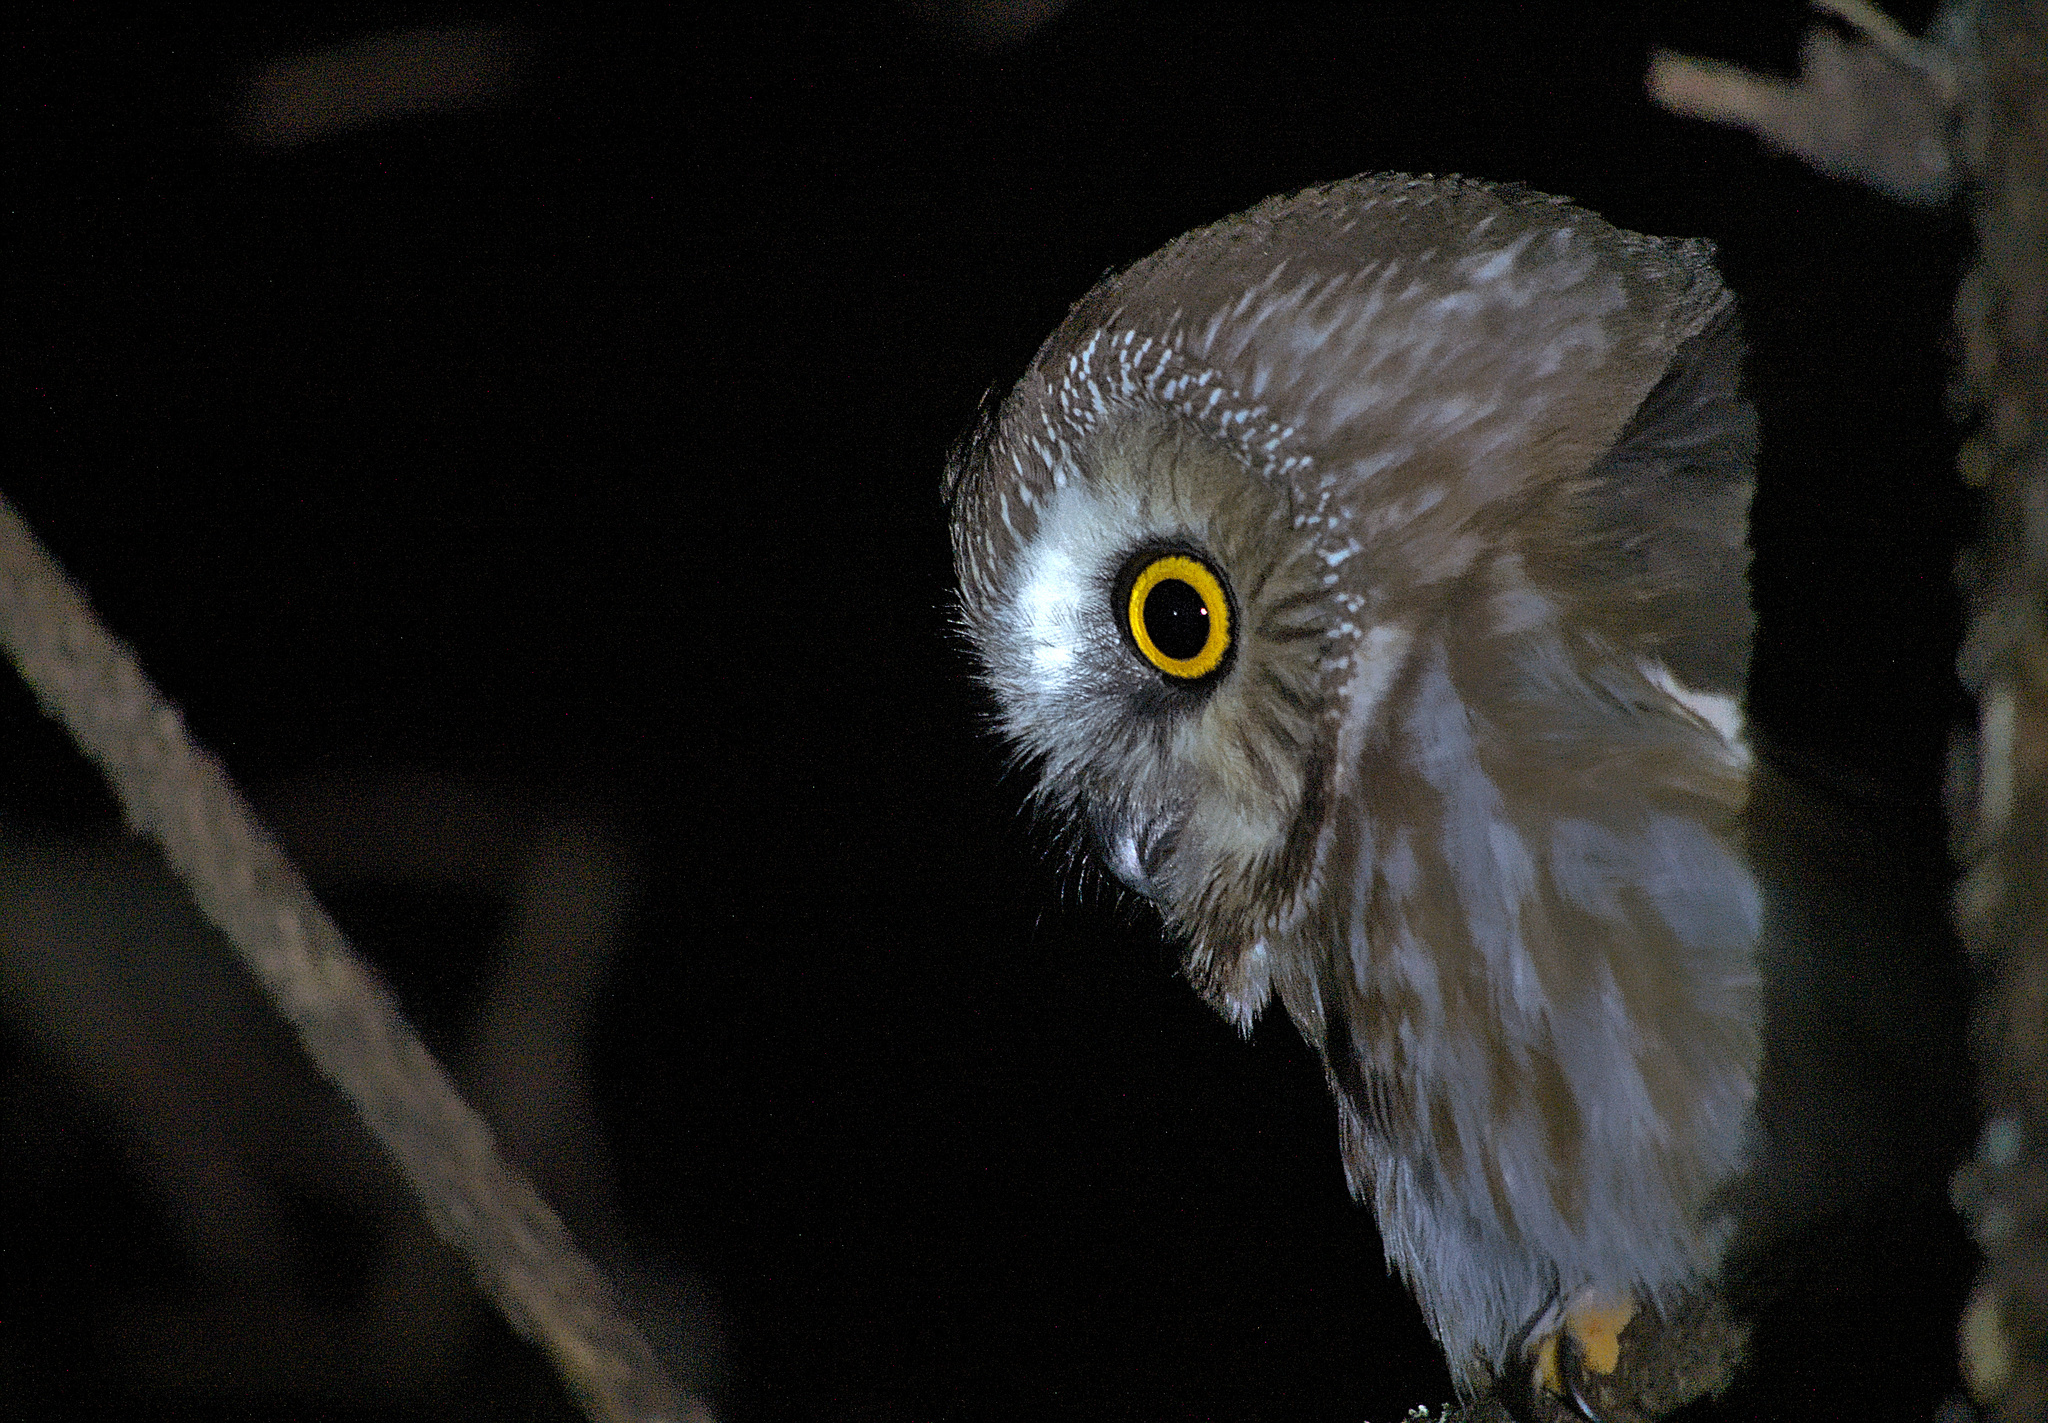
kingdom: Animalia
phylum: Chordata
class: Aves
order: Strigiformes
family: Strigidae
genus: Aegolius
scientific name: Aegolius acadicus
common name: Northern saw-whet owl
